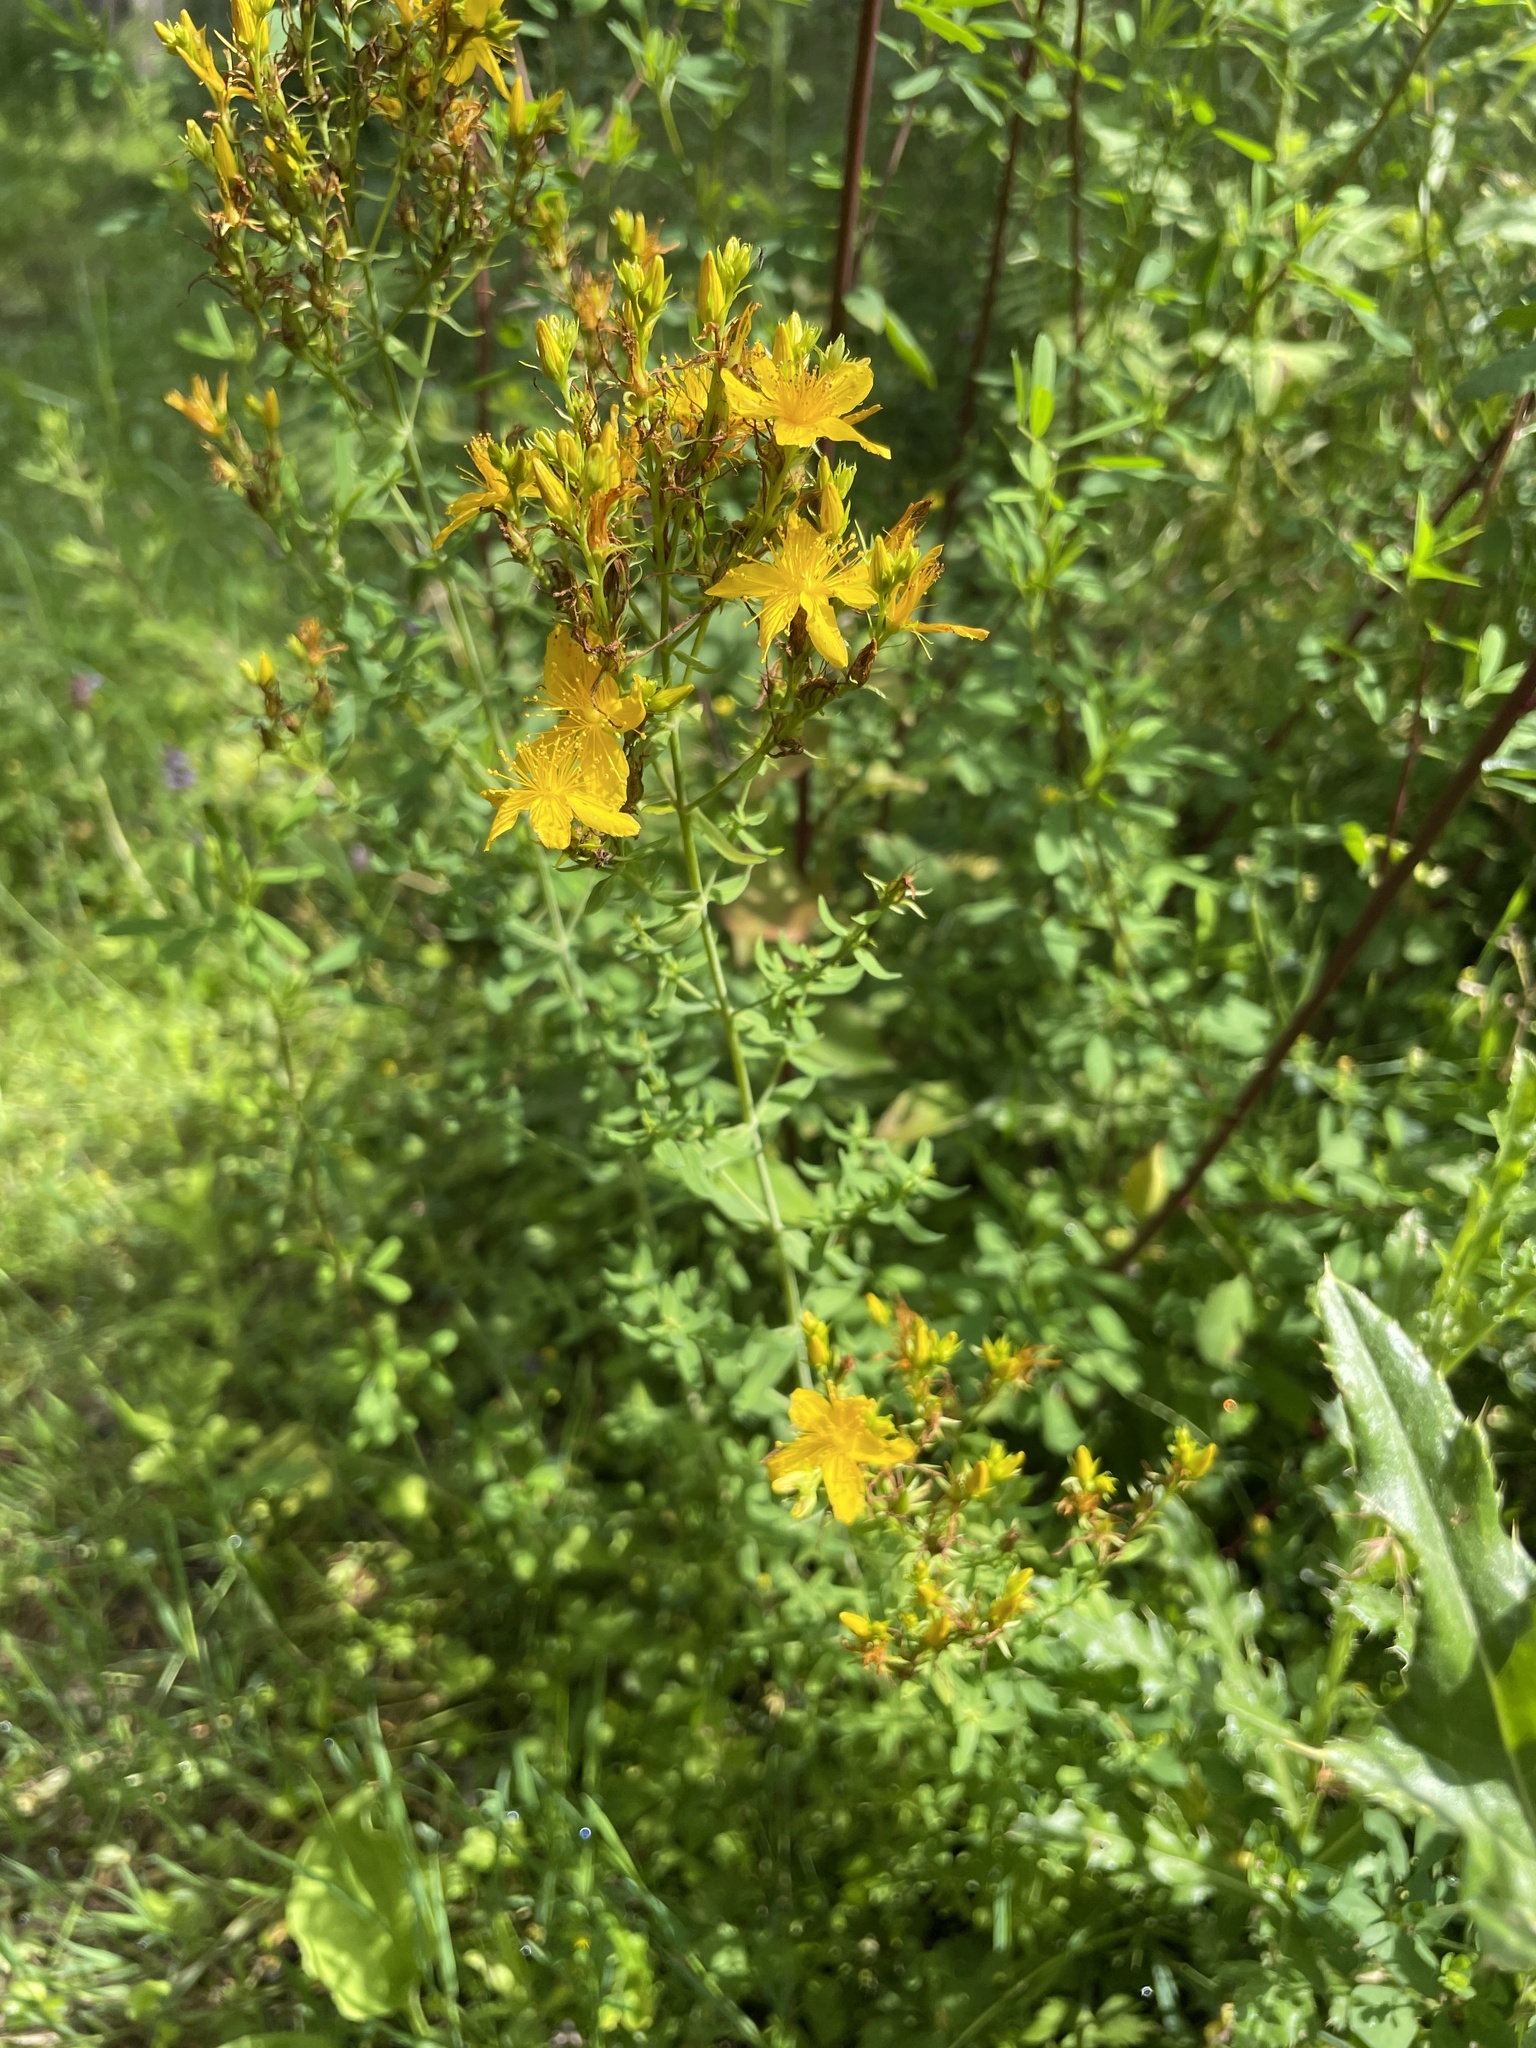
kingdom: Plantae
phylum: Tracheophyta
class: Magnoliopsida
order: Malpighiales
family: Hypericaceae
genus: Hypericum
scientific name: Hypericum perforatum
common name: Common st. johnswort
